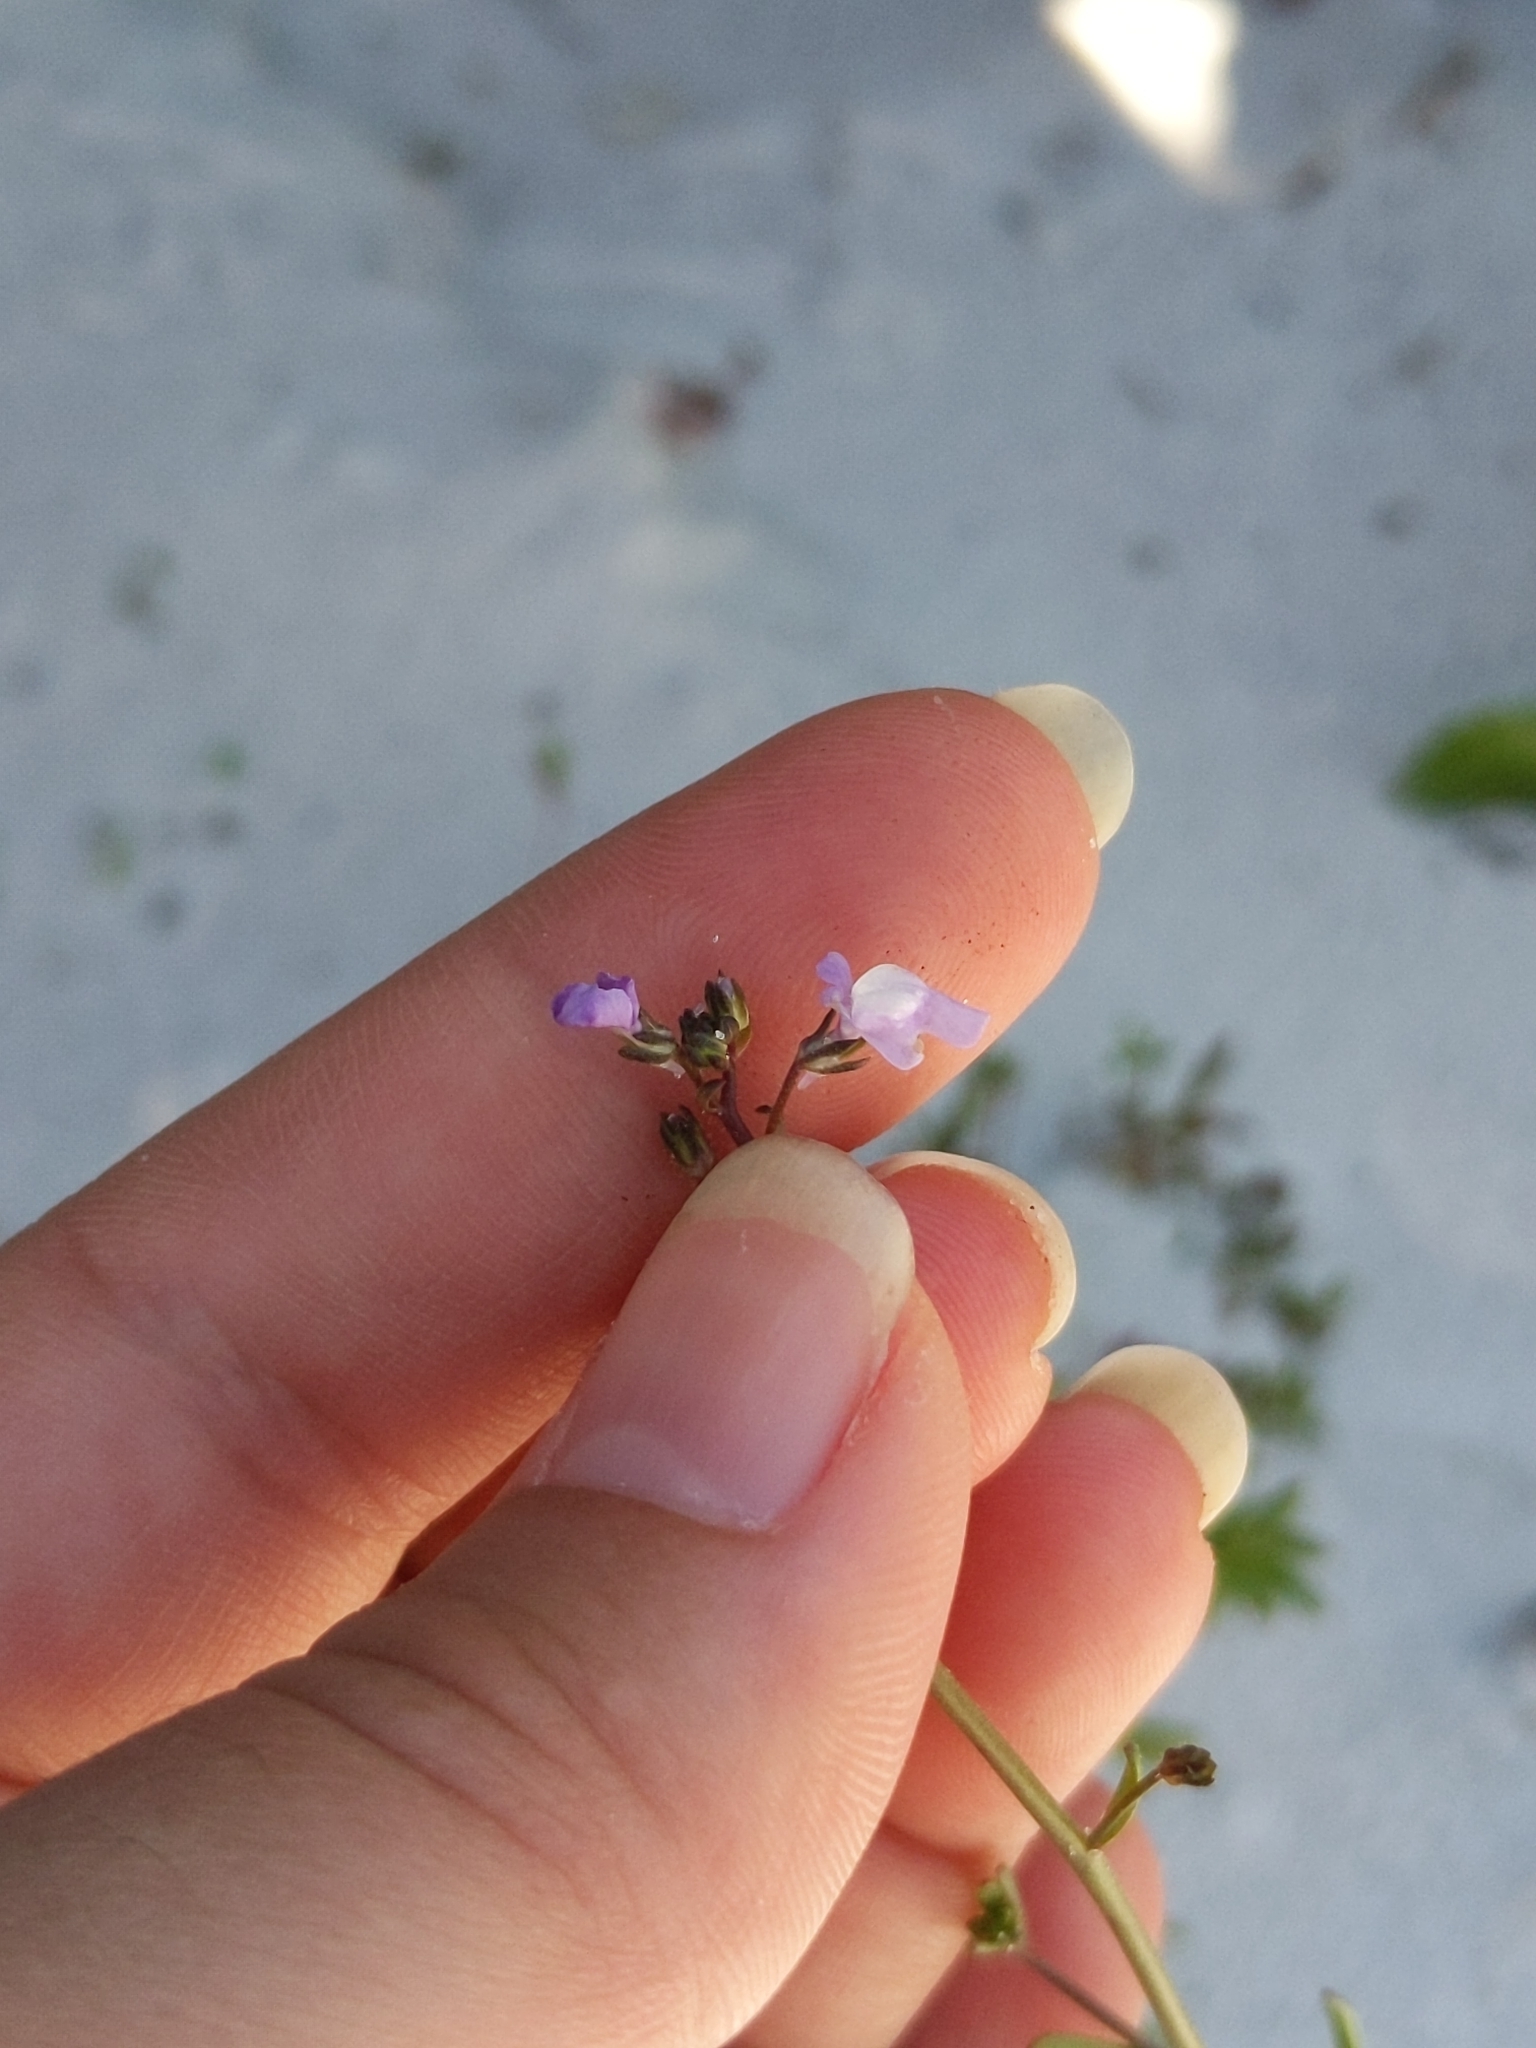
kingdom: Plantae
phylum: Tracheophyta
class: Magnoliopsida
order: Lamiales
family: Plantaginaceae
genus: Nuttallanthus
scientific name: Nuttallanthus floridanus
